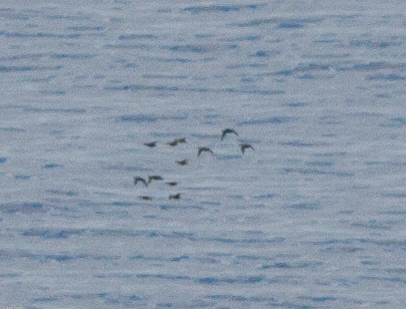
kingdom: Animalia
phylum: Chordata
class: Aves
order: Anseriformes
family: Anatidae
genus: Melanitta
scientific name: Melanitta perspicillata
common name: Surf scoter
